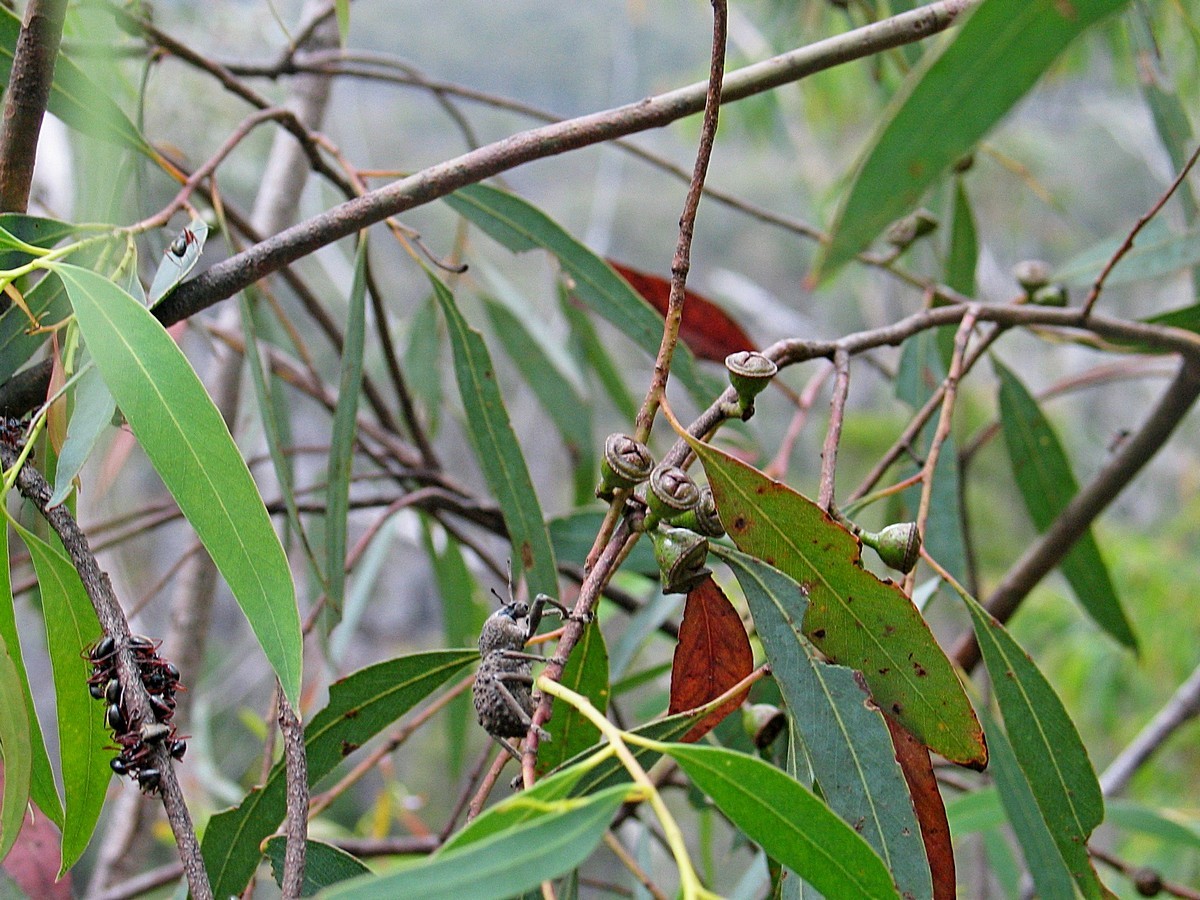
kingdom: Plantae
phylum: Tracheophyta
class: Magnoliopsida
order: Myrtales
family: Myrtaceae
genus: Eucalyptus
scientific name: Eucalyptus wilcoxii
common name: Deua gum
